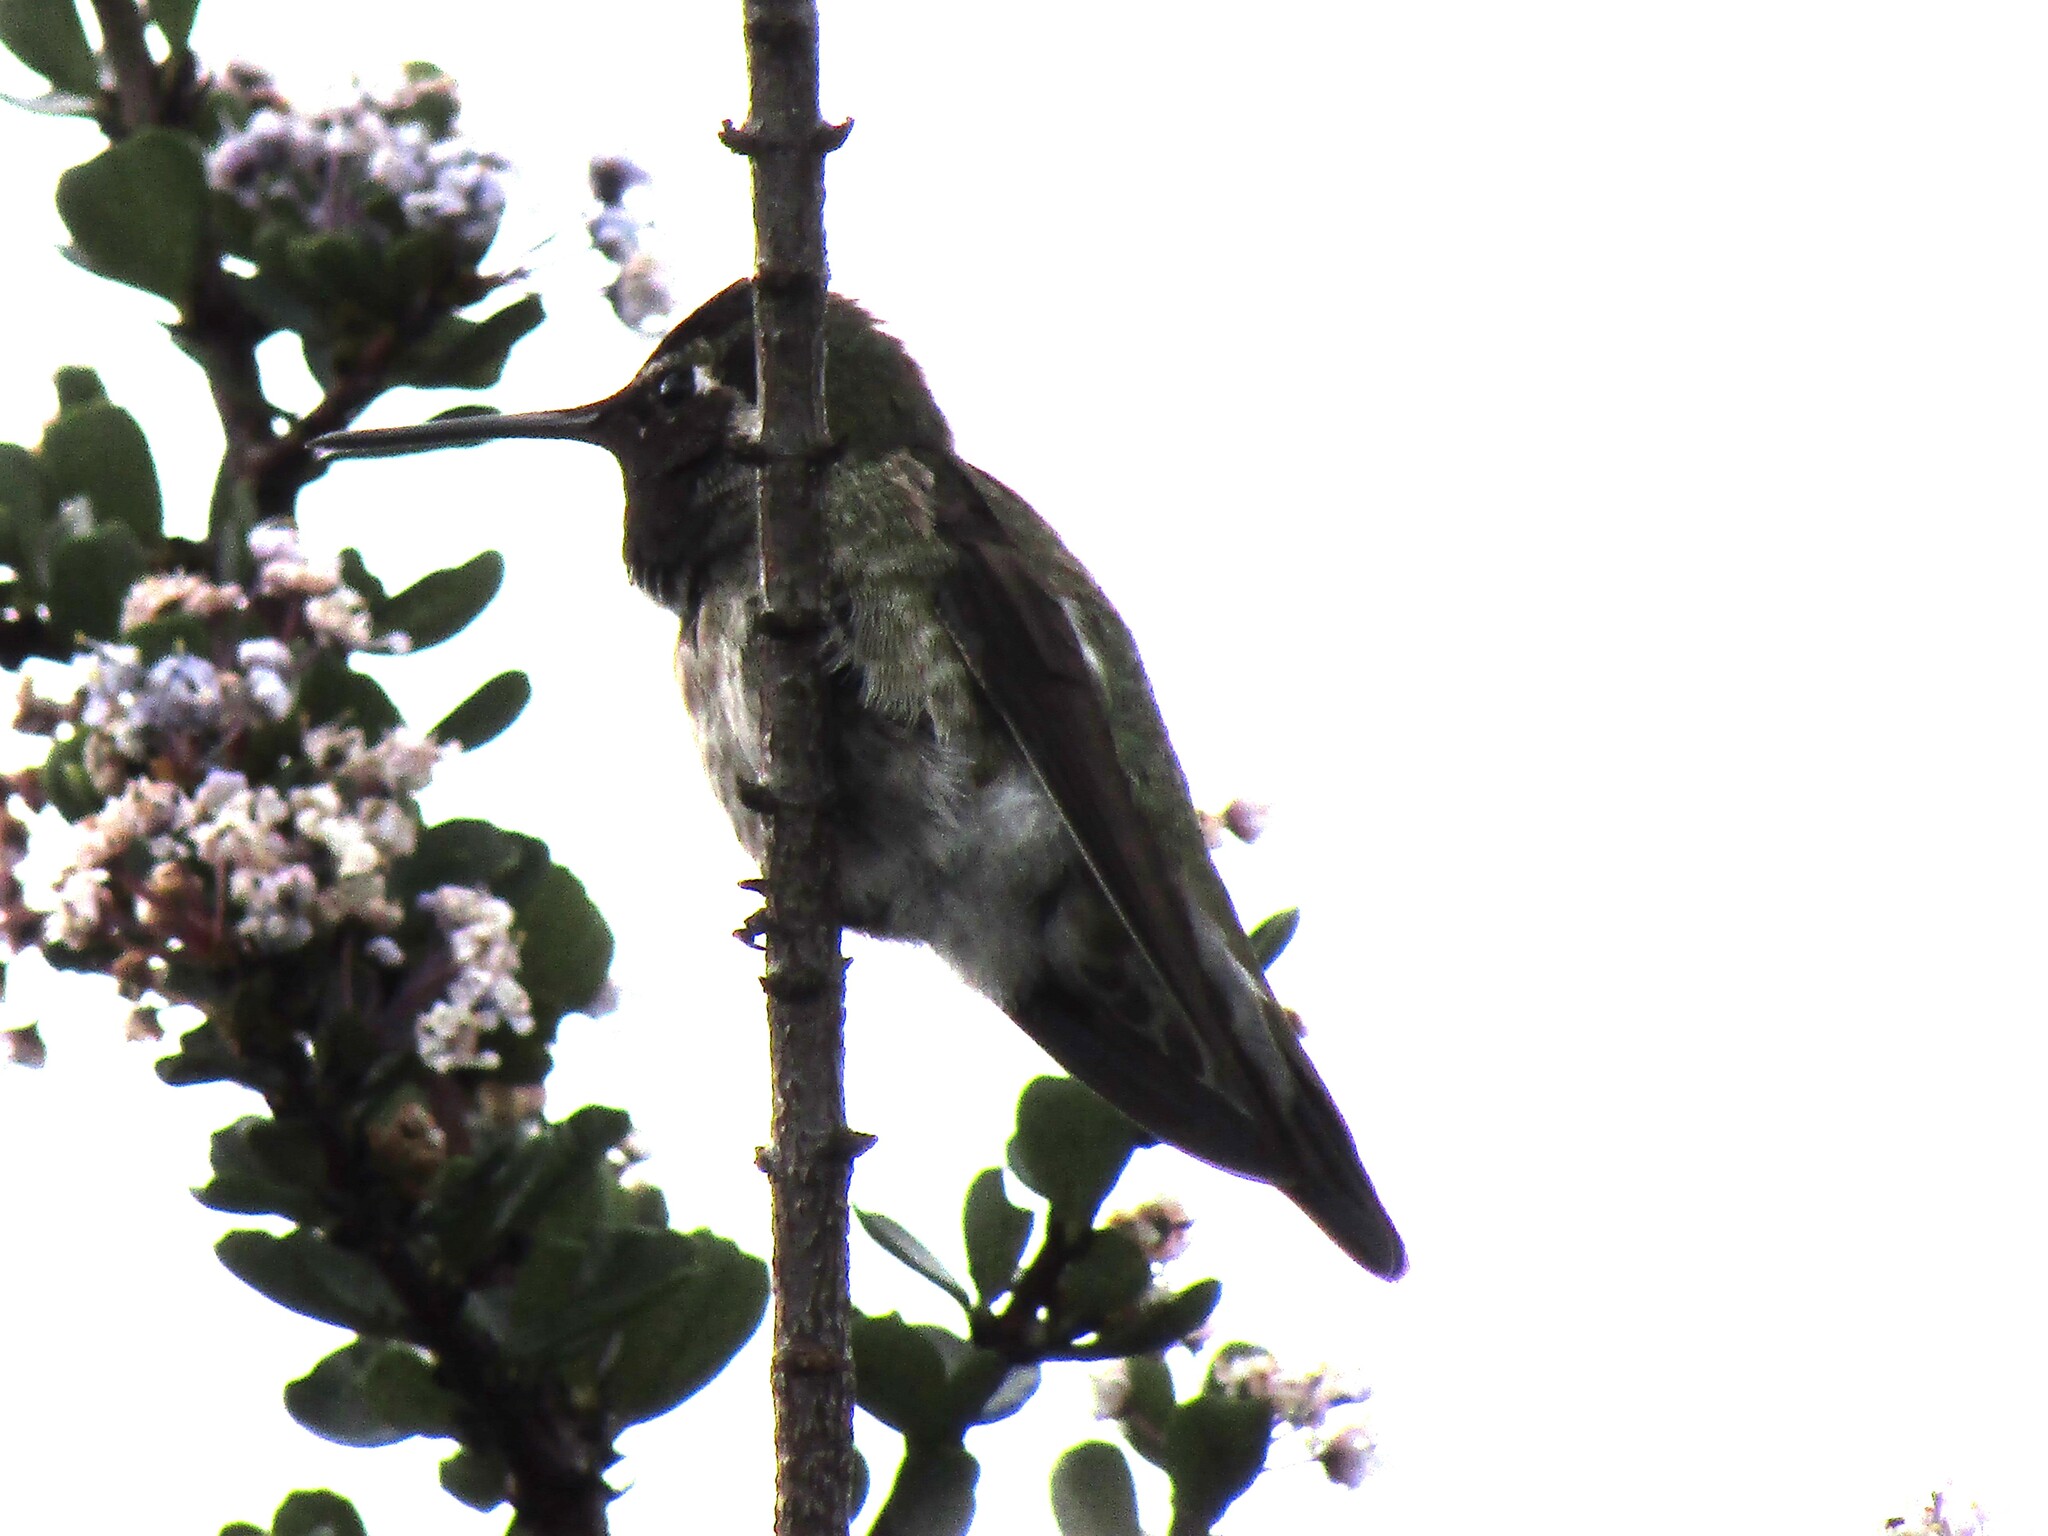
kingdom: Animalia
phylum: Chordata
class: Aves
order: Apodiformes
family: Trochilidae
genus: Calypte
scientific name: Calypte anna
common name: Anna's hummingbird
